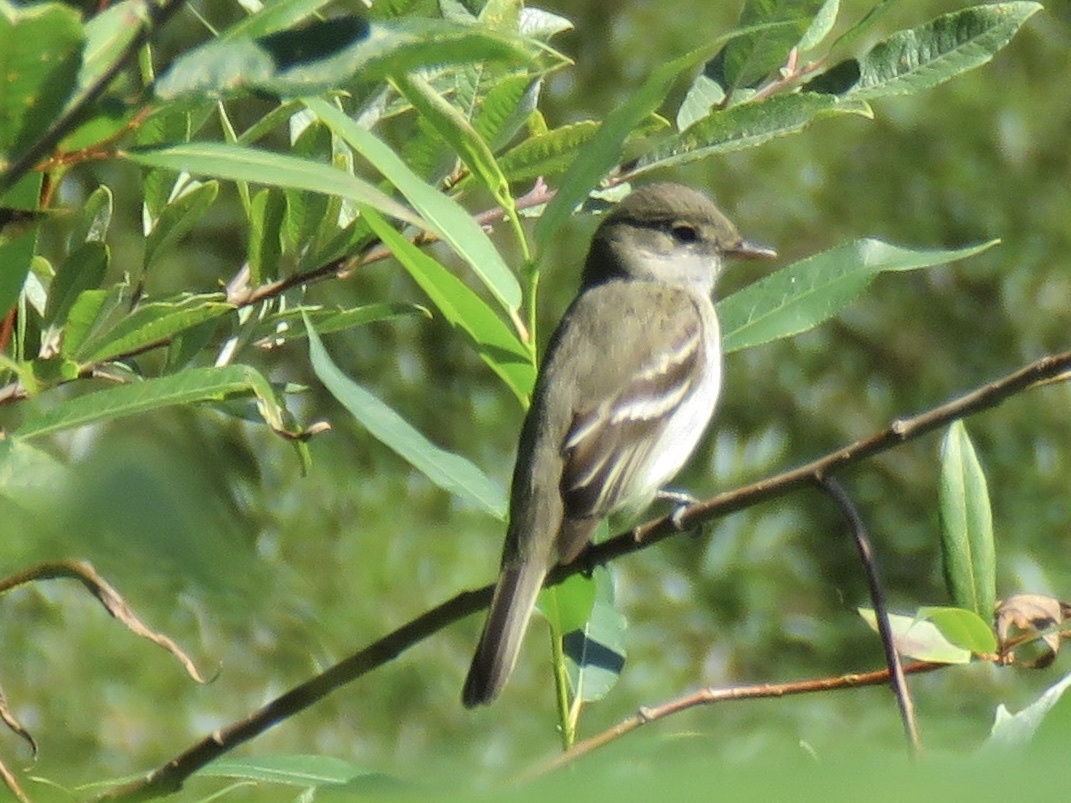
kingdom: Animalia
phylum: Chordata
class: Aves
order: Passeriformes
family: Tyrannidae
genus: Empidonax
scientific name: Empidonax traillii
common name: Willow flycatcher
